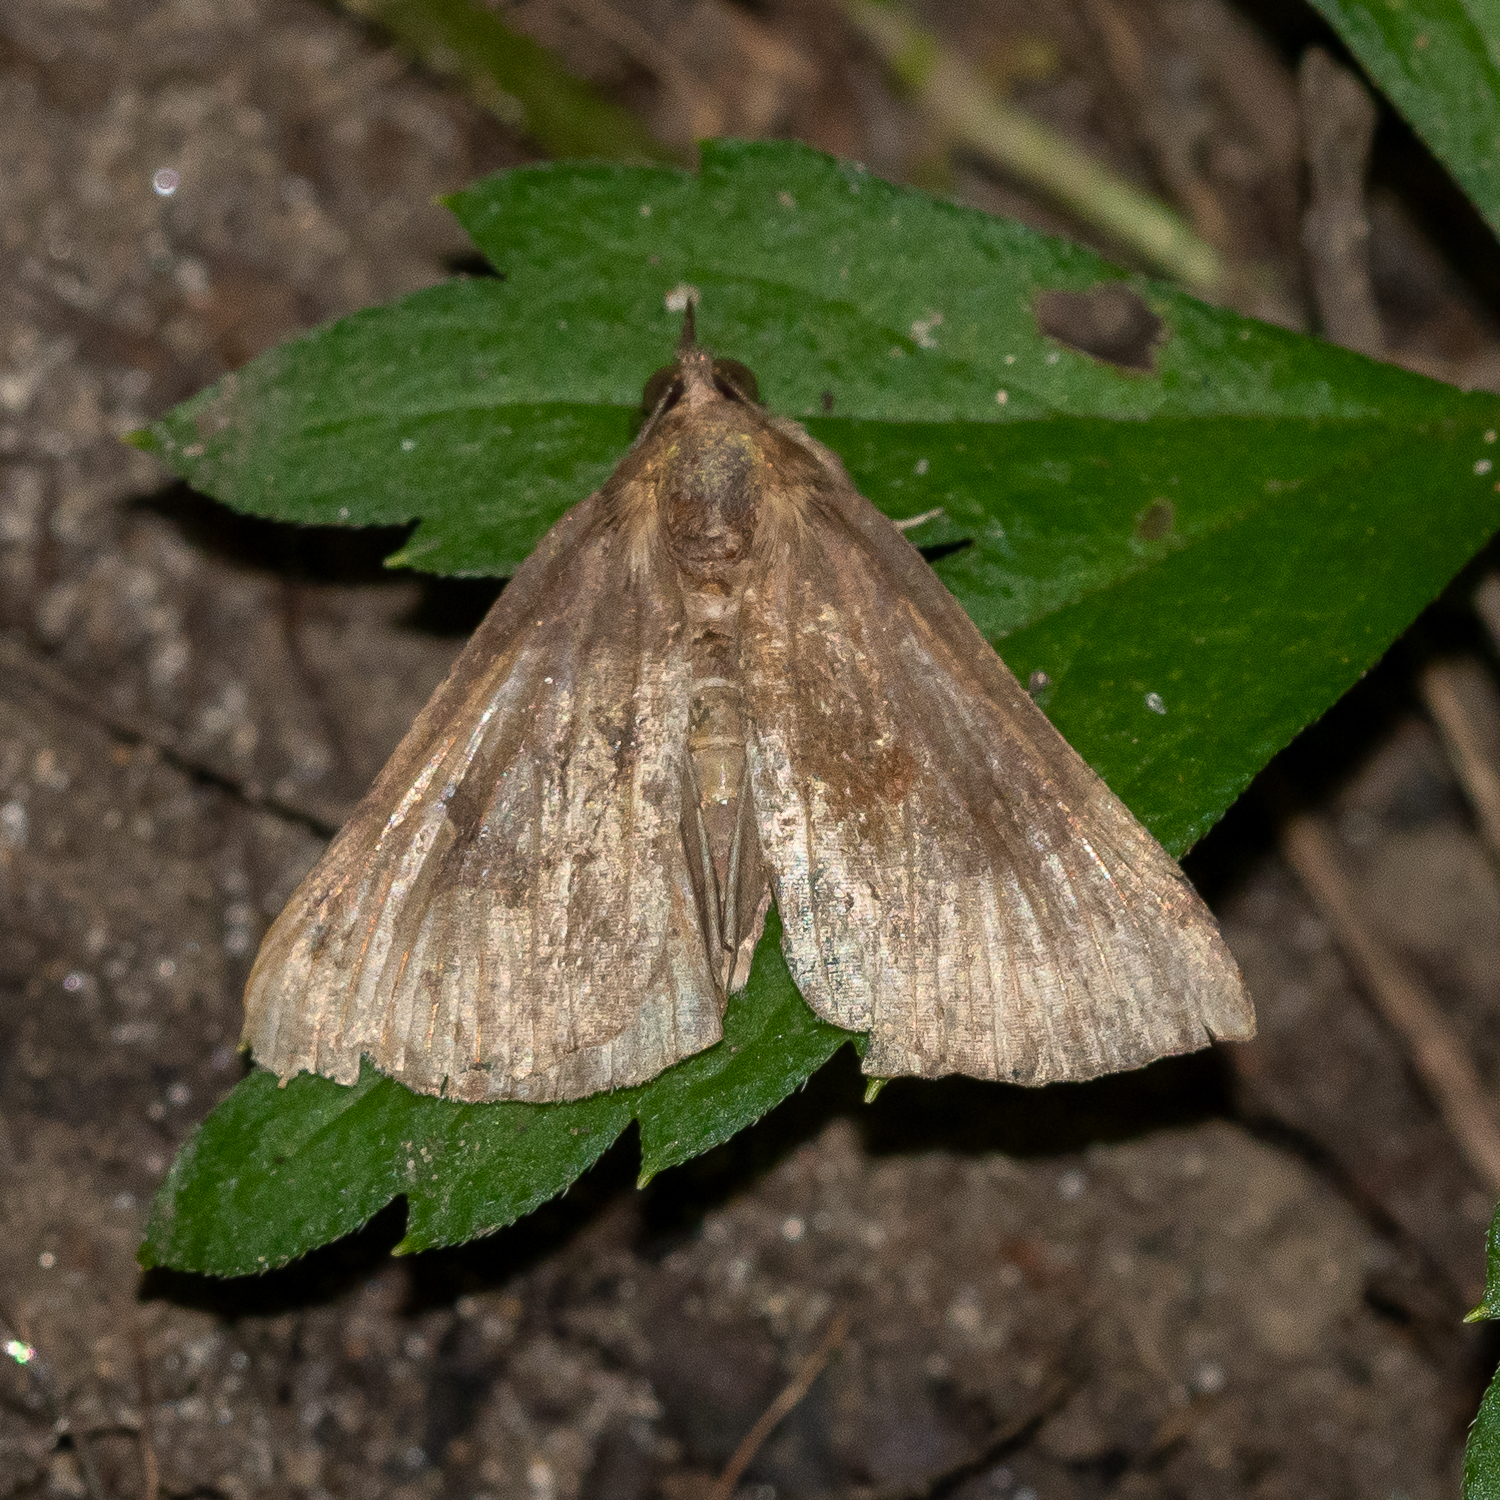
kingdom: Animalia
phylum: Arthropoda
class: Insecta
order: Lepidoptera
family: Erebidae
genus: Hypena
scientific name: Hypena madefactalis
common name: Gray-edged snout
